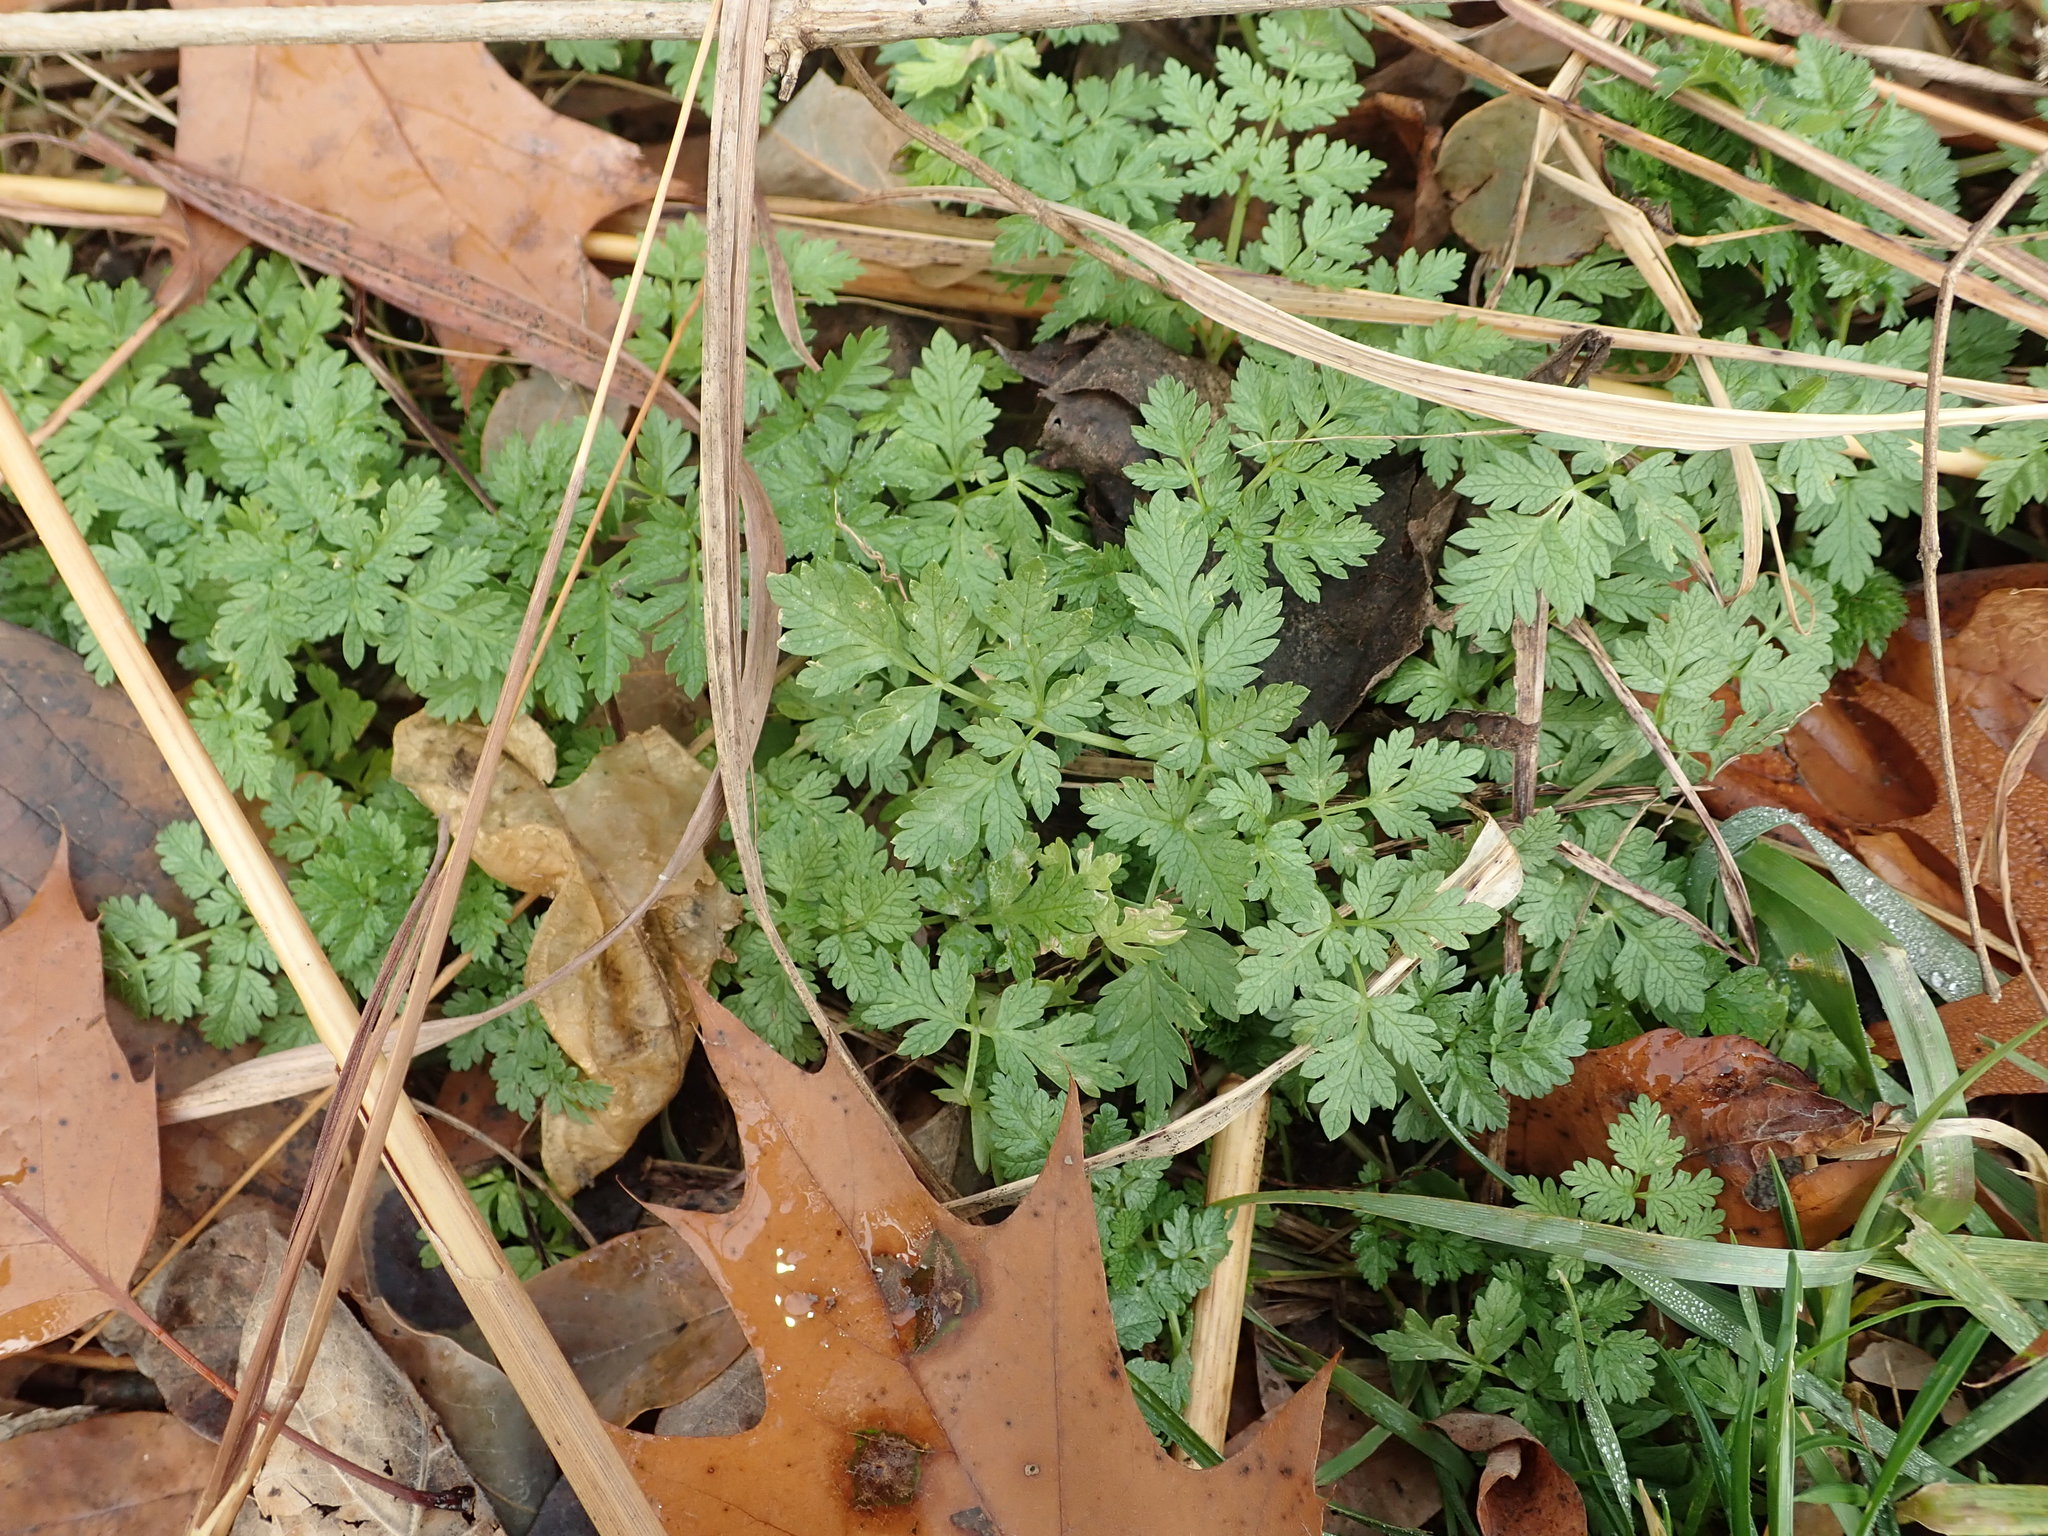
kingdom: Plantae
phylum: Tracheophyta
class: Magnoliopsida
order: Apiales
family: Apiaceae
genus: Conium
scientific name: Conium maculatum
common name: Hemlock
